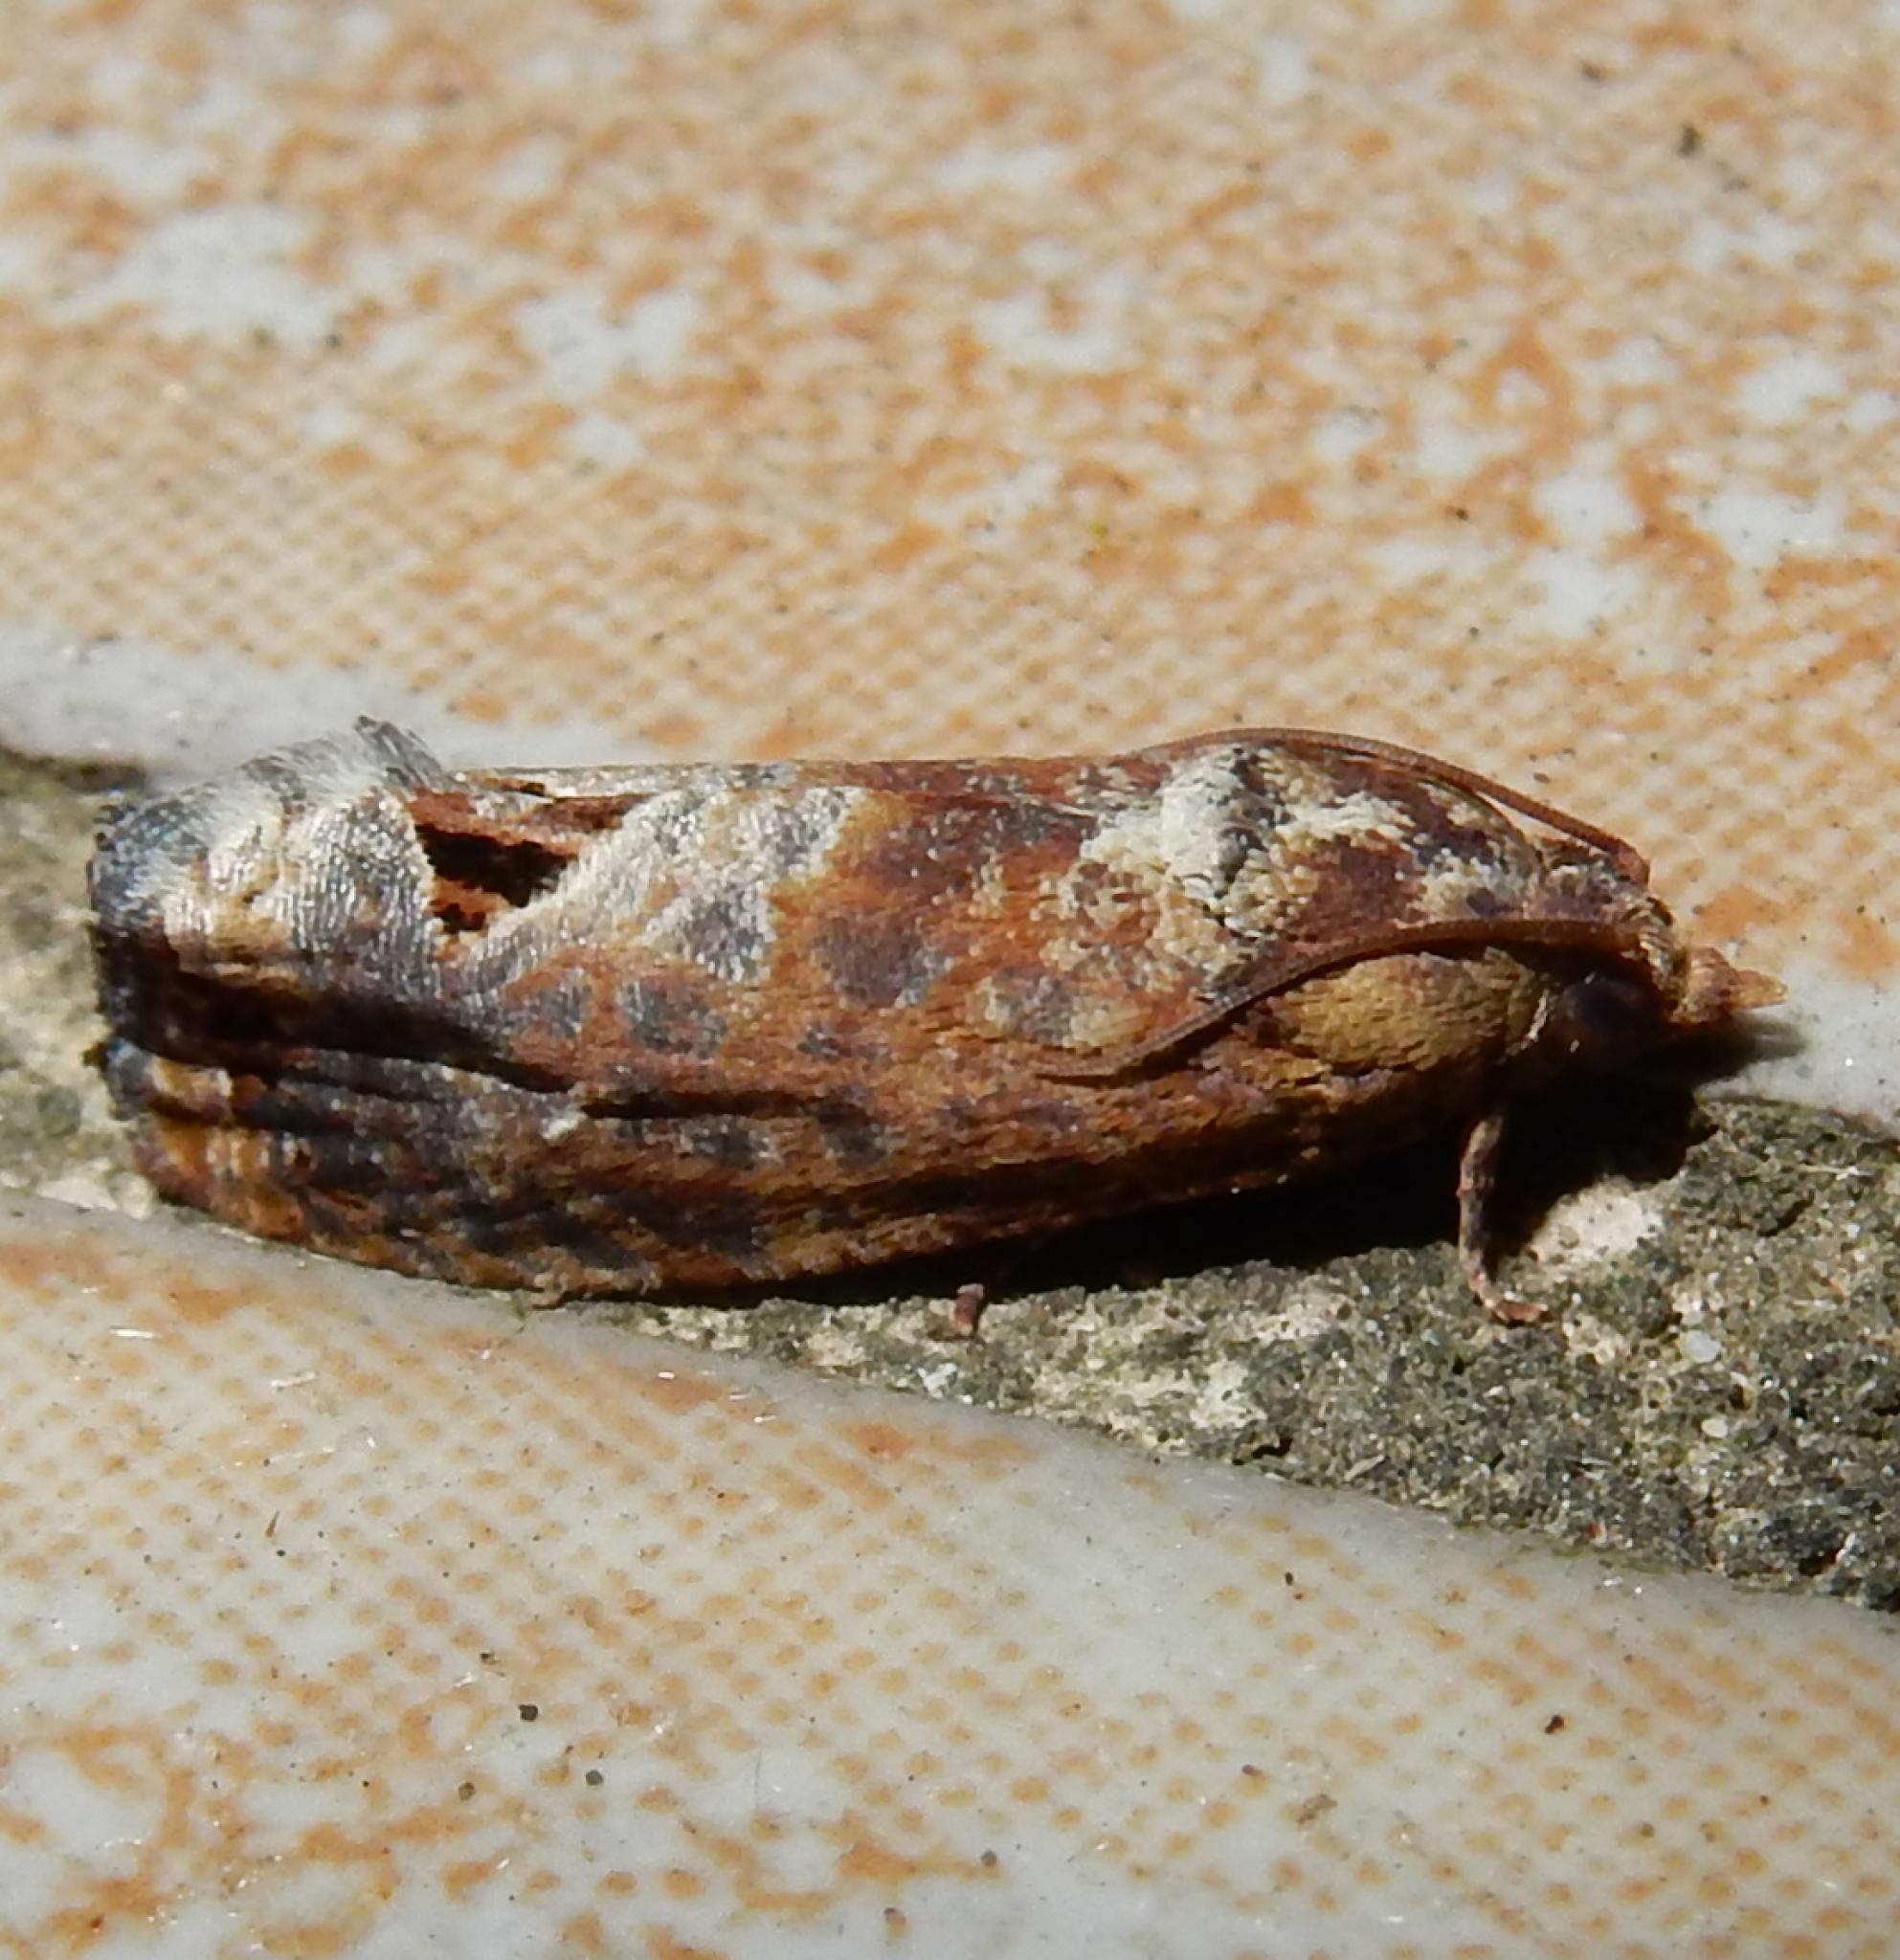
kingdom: Animalia
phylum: Arthropoda
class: Insecta
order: Lepidoptera
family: Tortricidae
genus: Cryptophlebia
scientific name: Cryptophlebia peltastica
